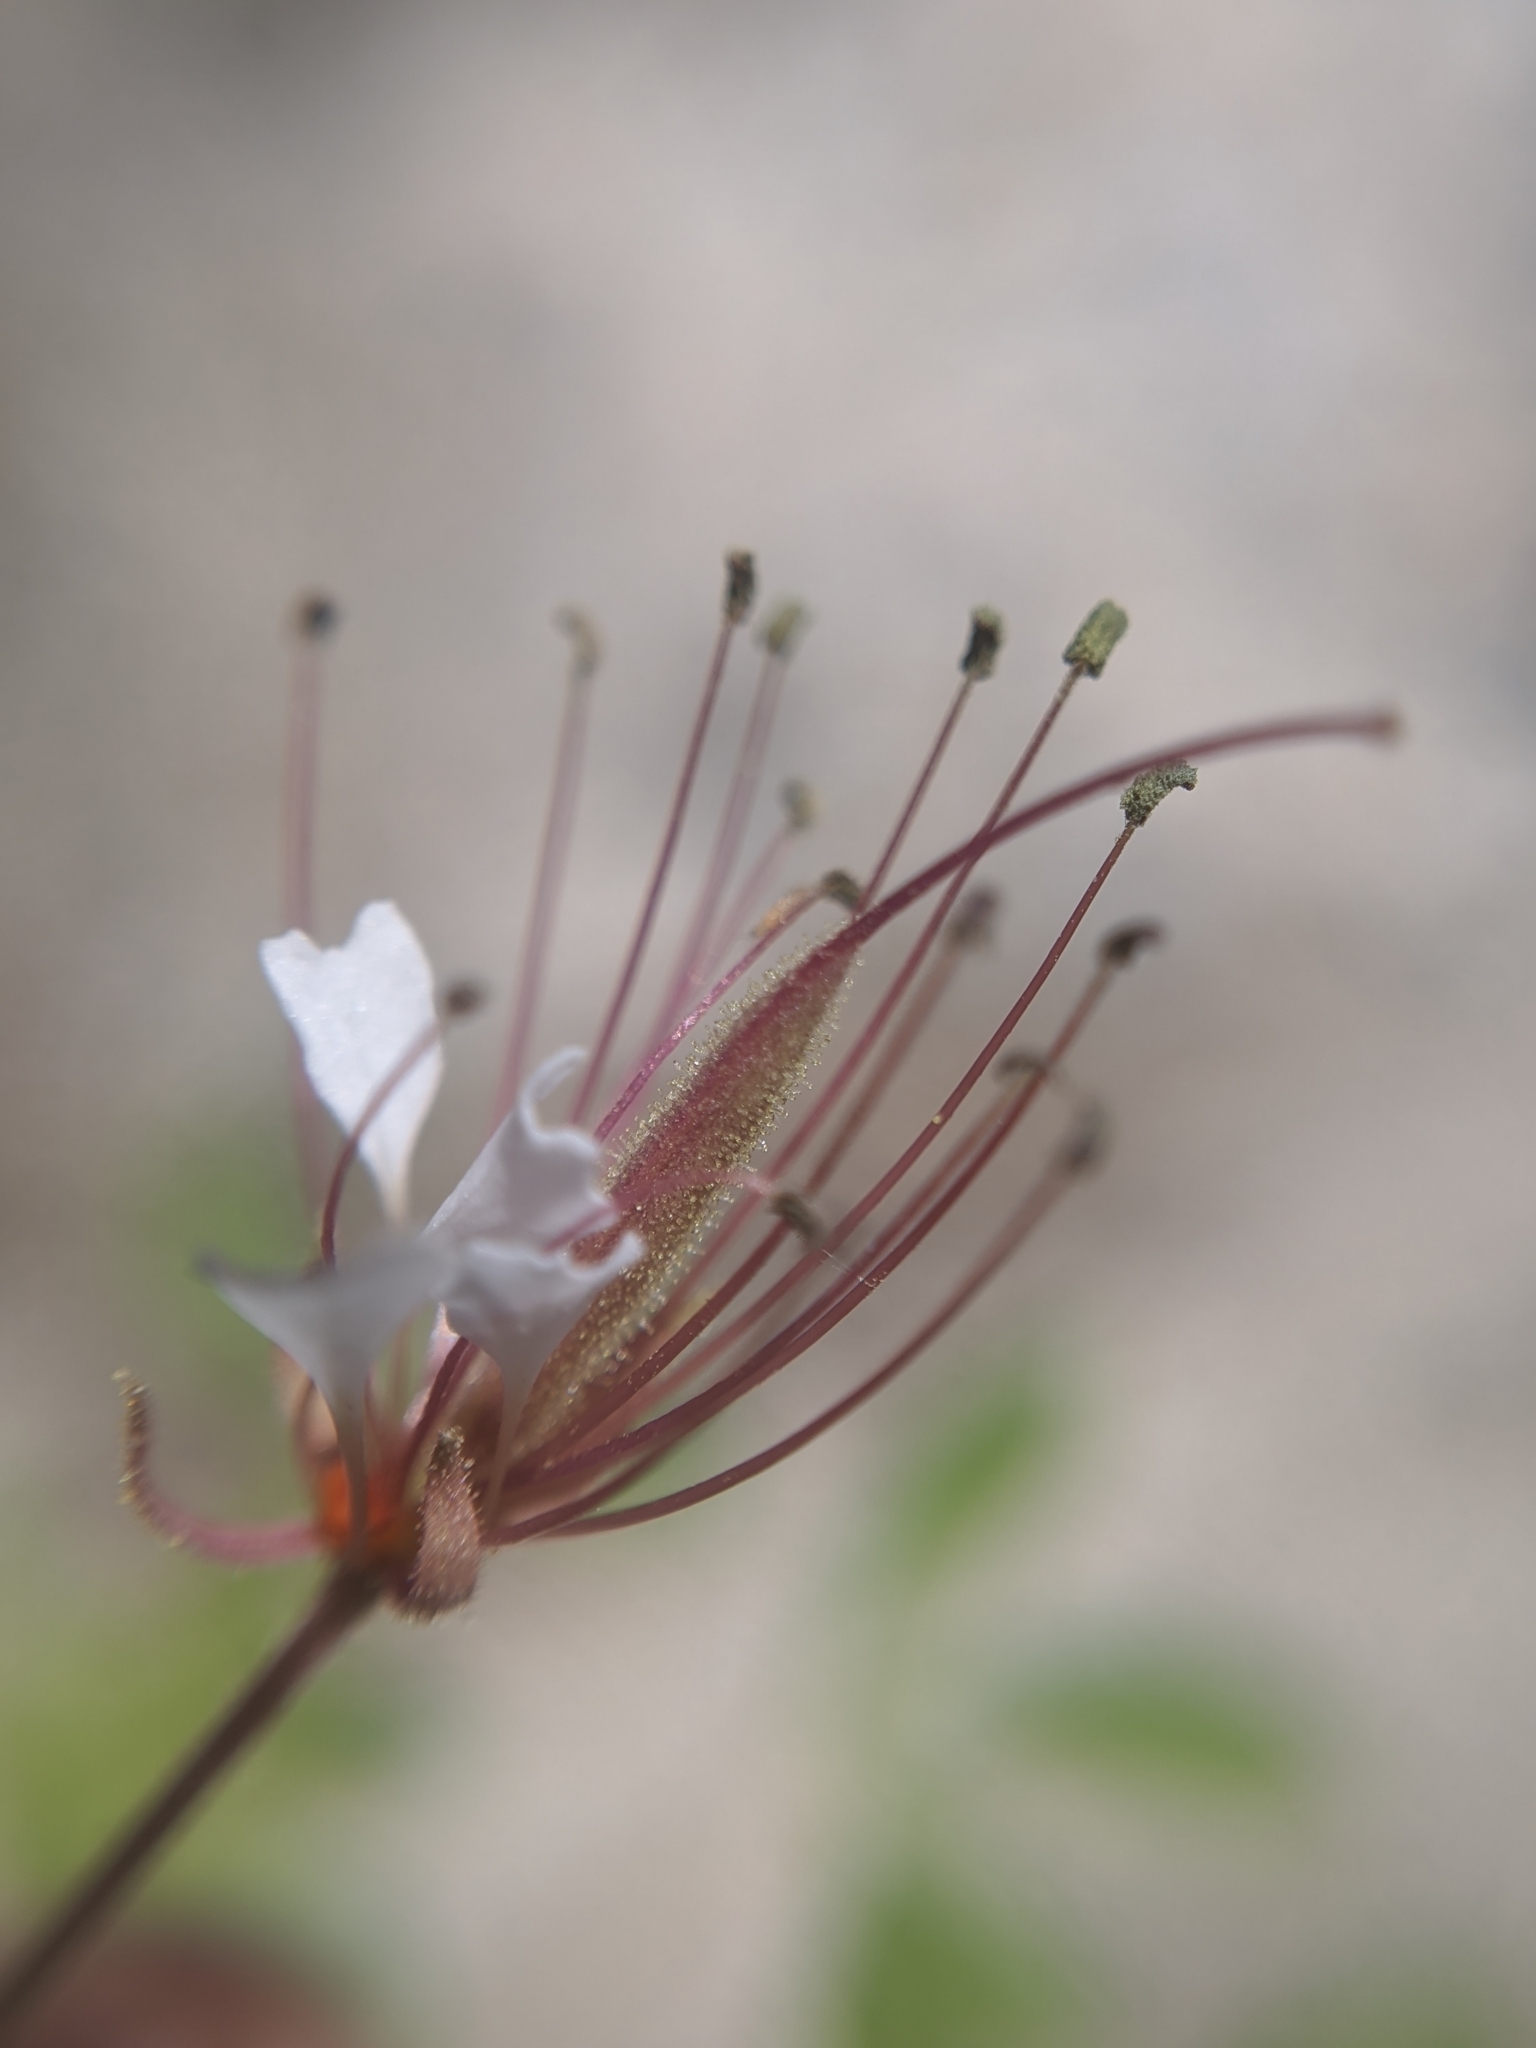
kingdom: Plantae
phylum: Tracheophyta
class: Magnoliopsida
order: Brassicales
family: Cleomaceae
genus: Polanisia
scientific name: Polanisia trachysperma
